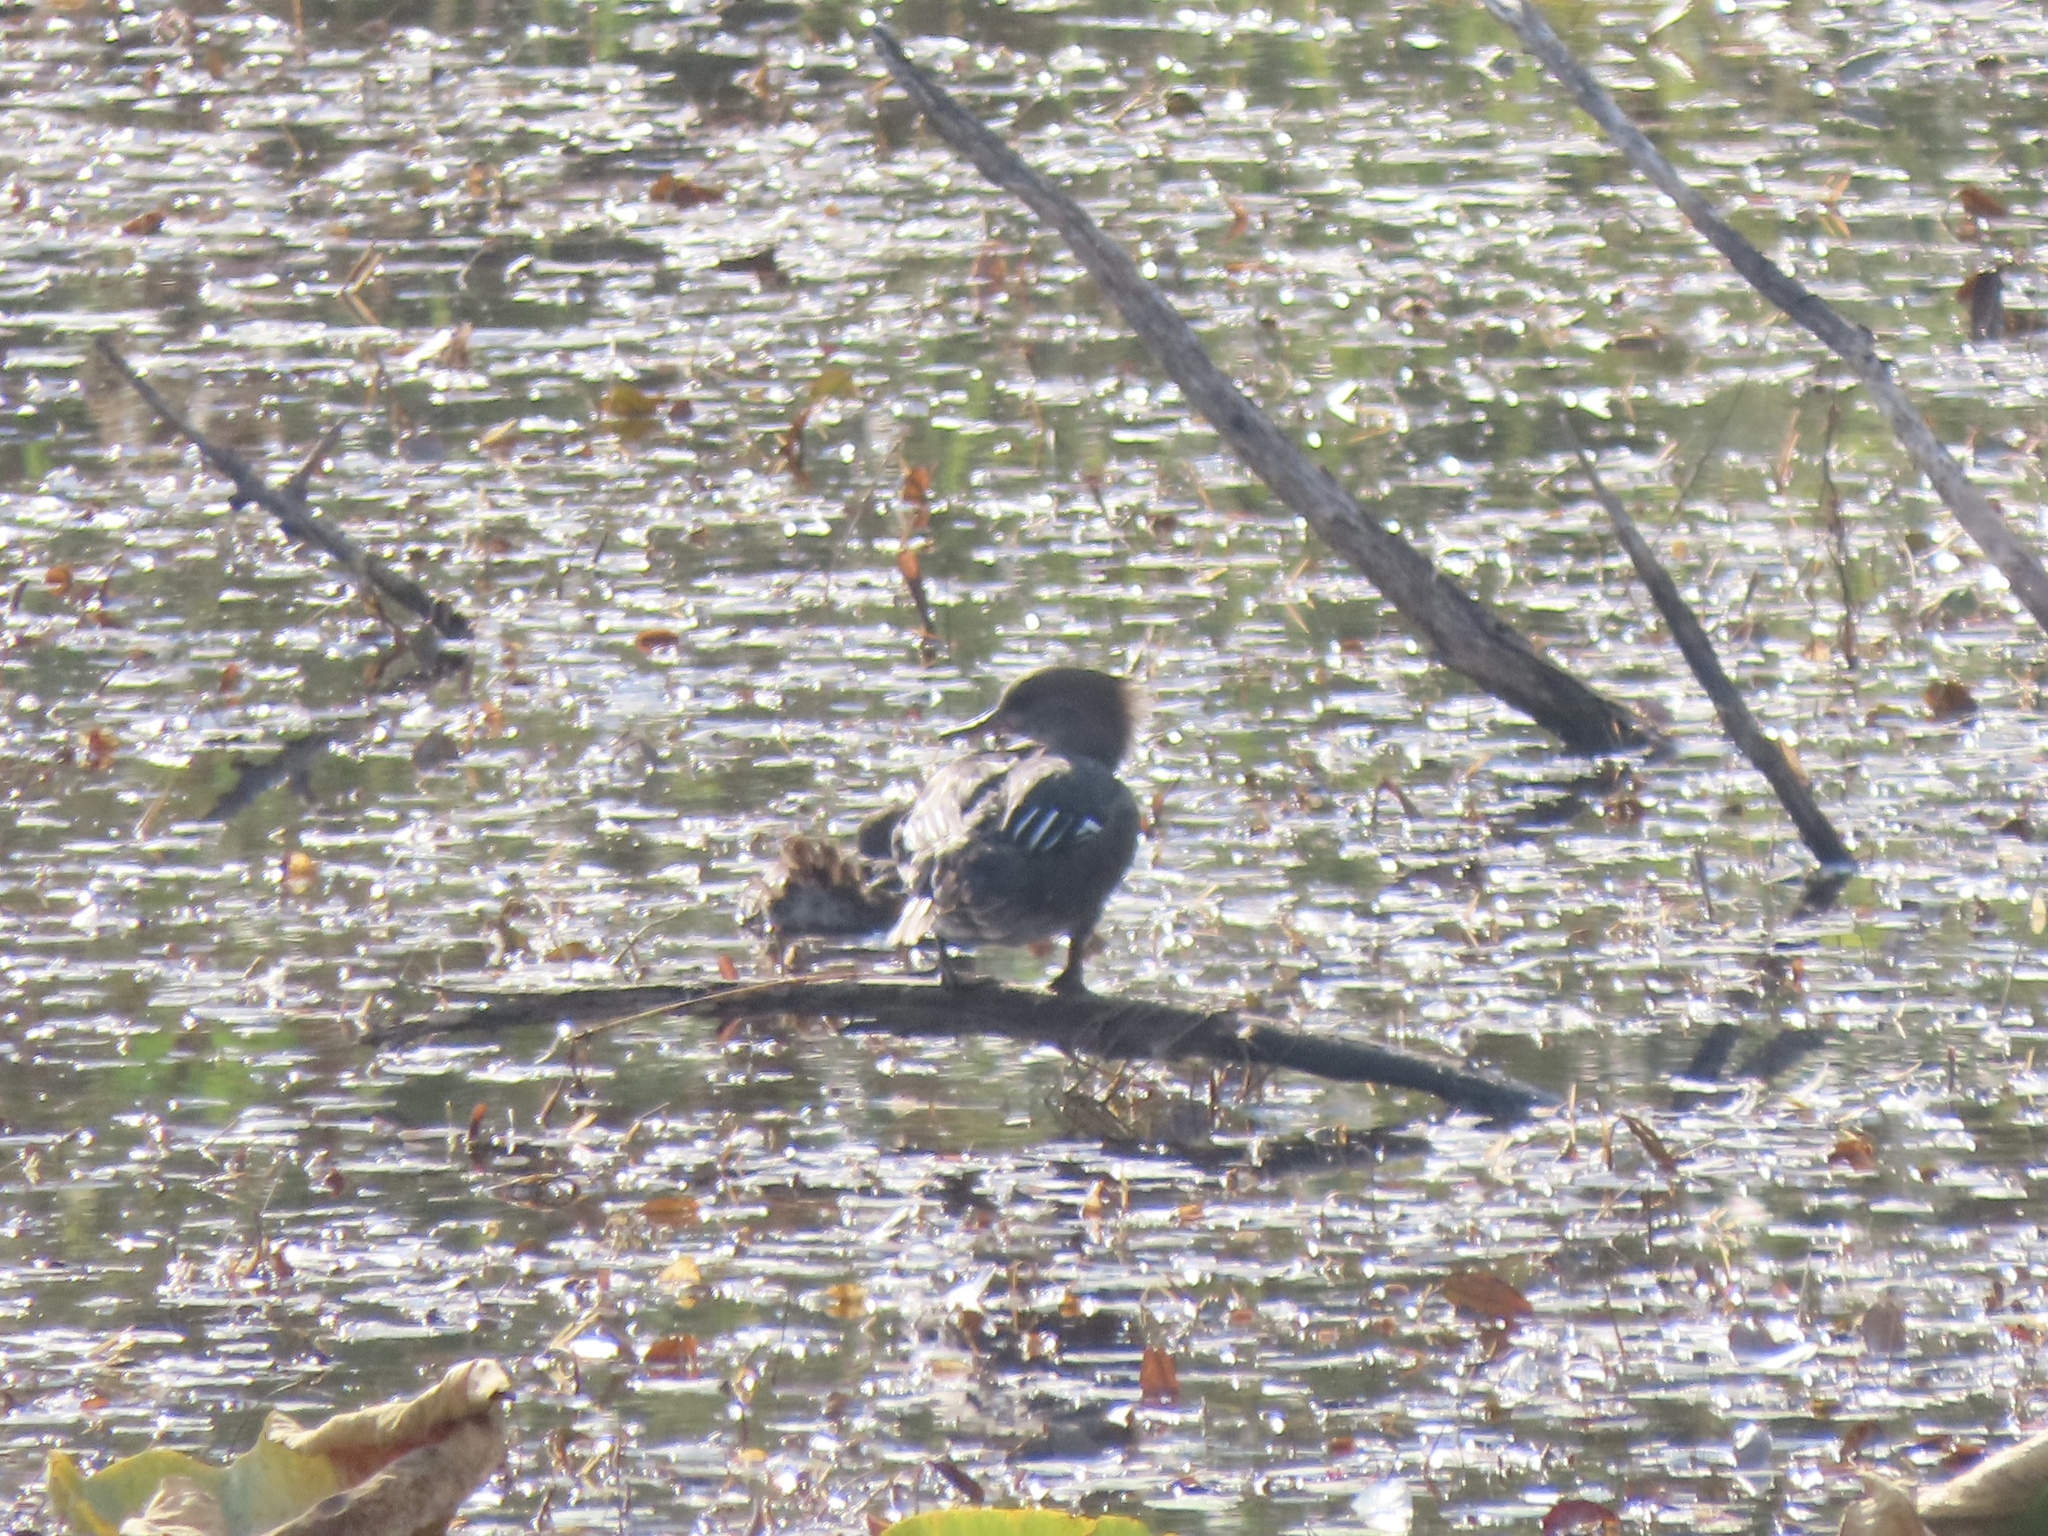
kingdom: Animalia
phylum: Chordata
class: Aves
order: Anseriformes
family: Anatidae
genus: Lophodytes
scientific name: Lophodytes cucullatus
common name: Hooded merganser
